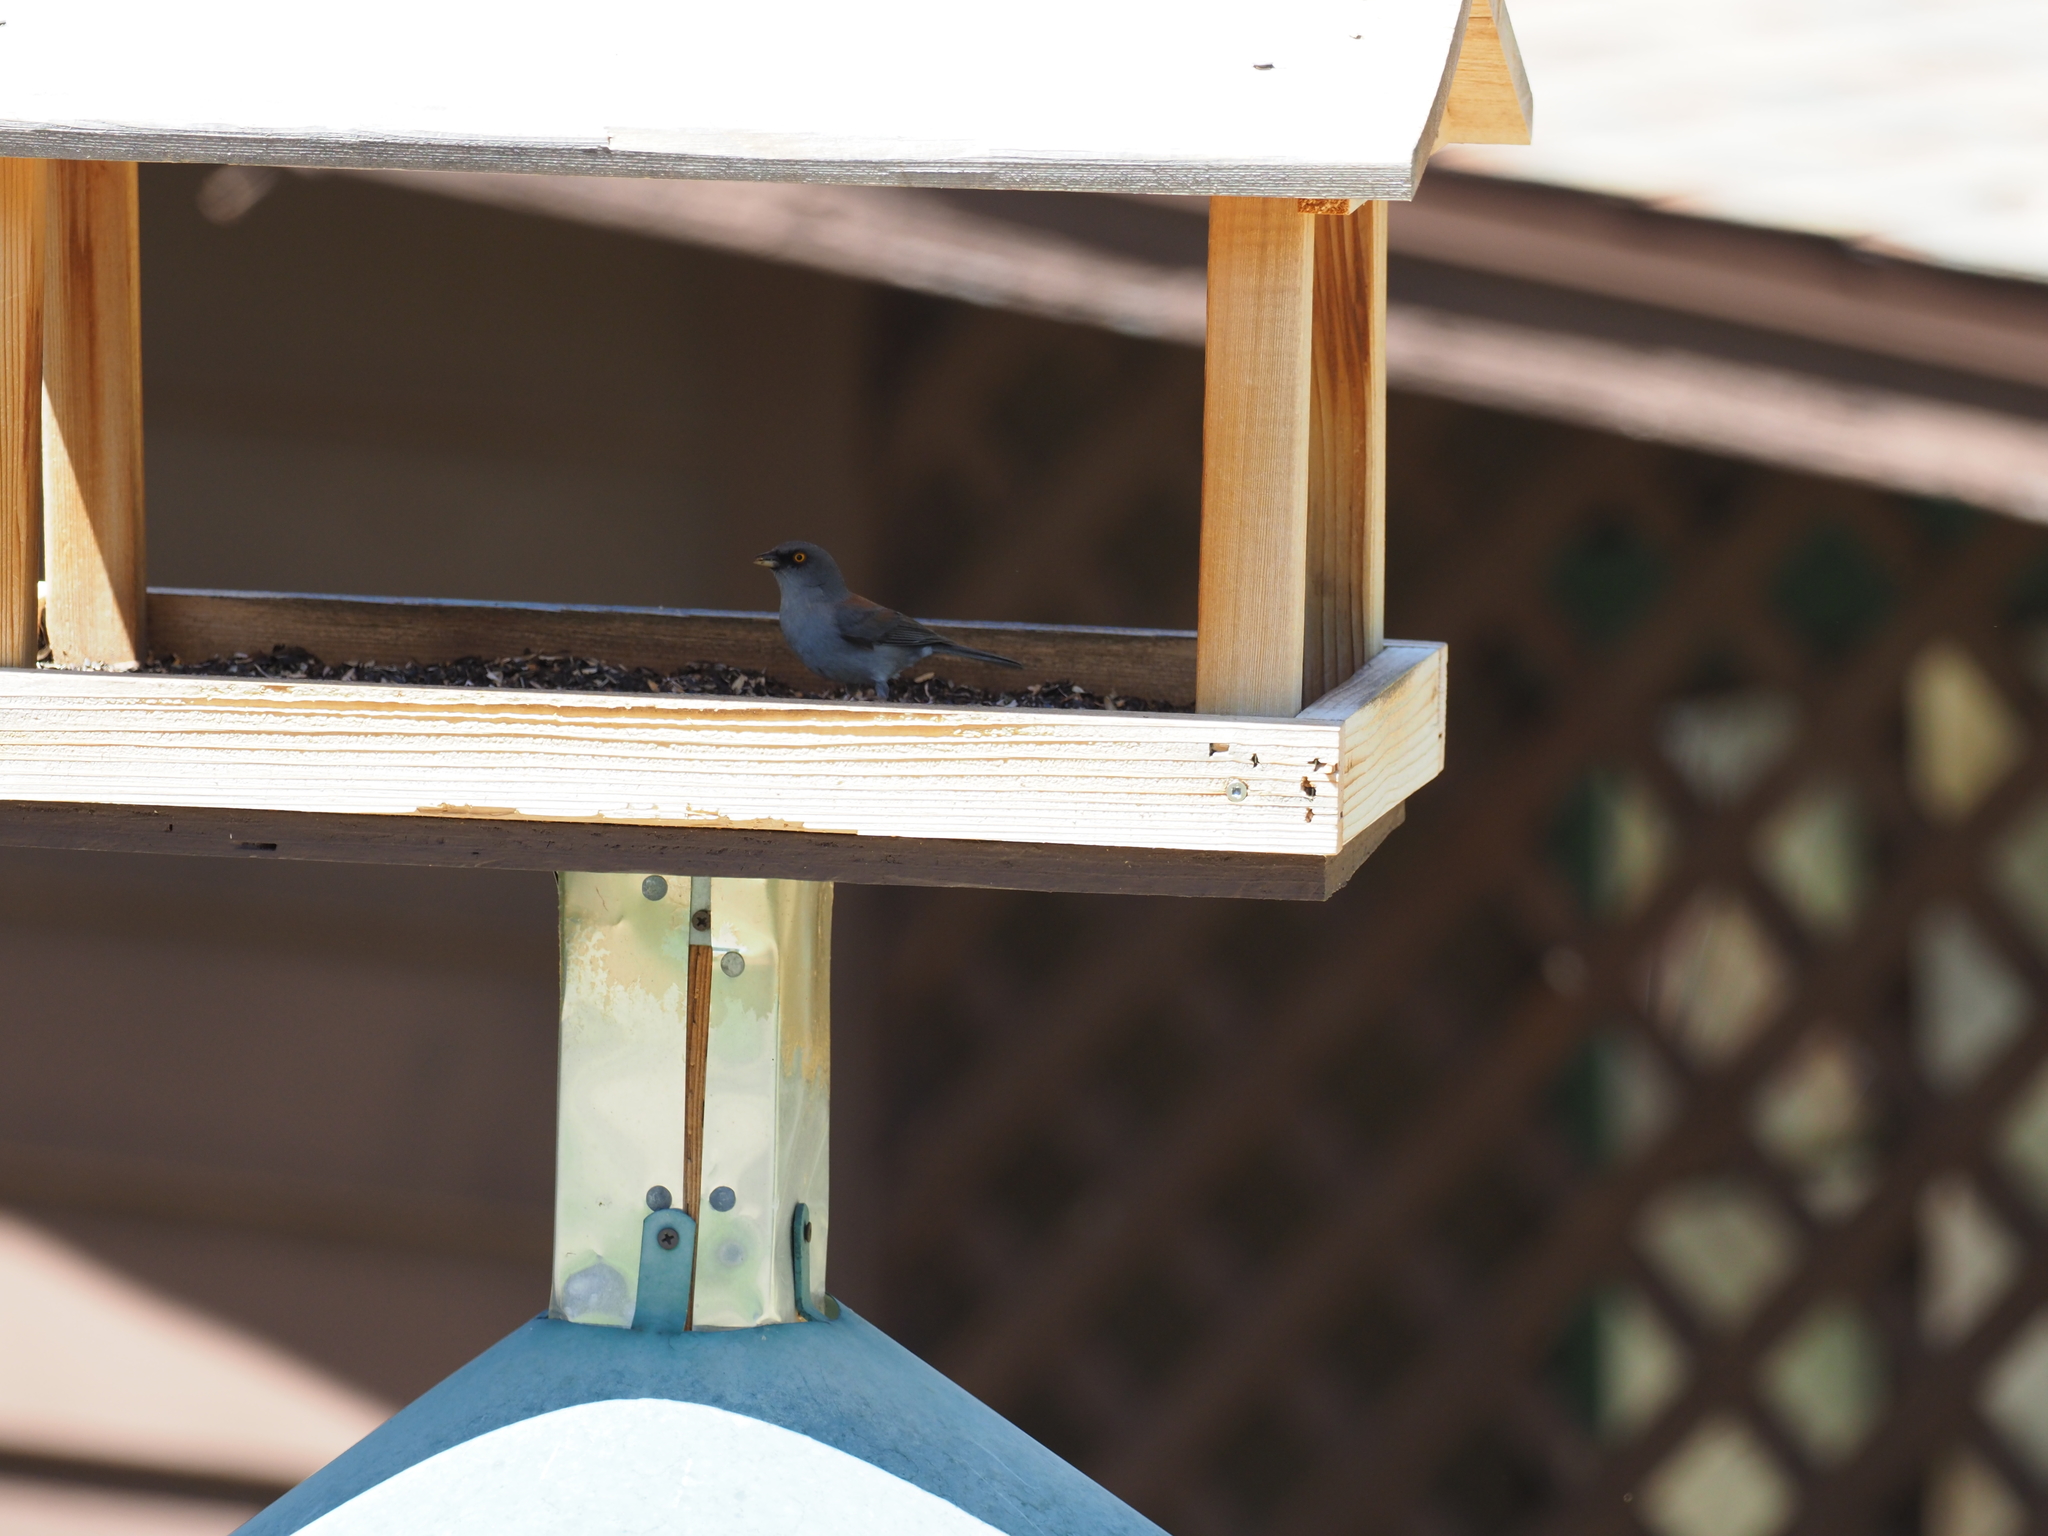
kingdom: Animalia
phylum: Chordata
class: Aves
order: Passeriformes
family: Passerellidae
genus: Junco
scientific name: Junco phaeonotus
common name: Yellow-eyed junco
